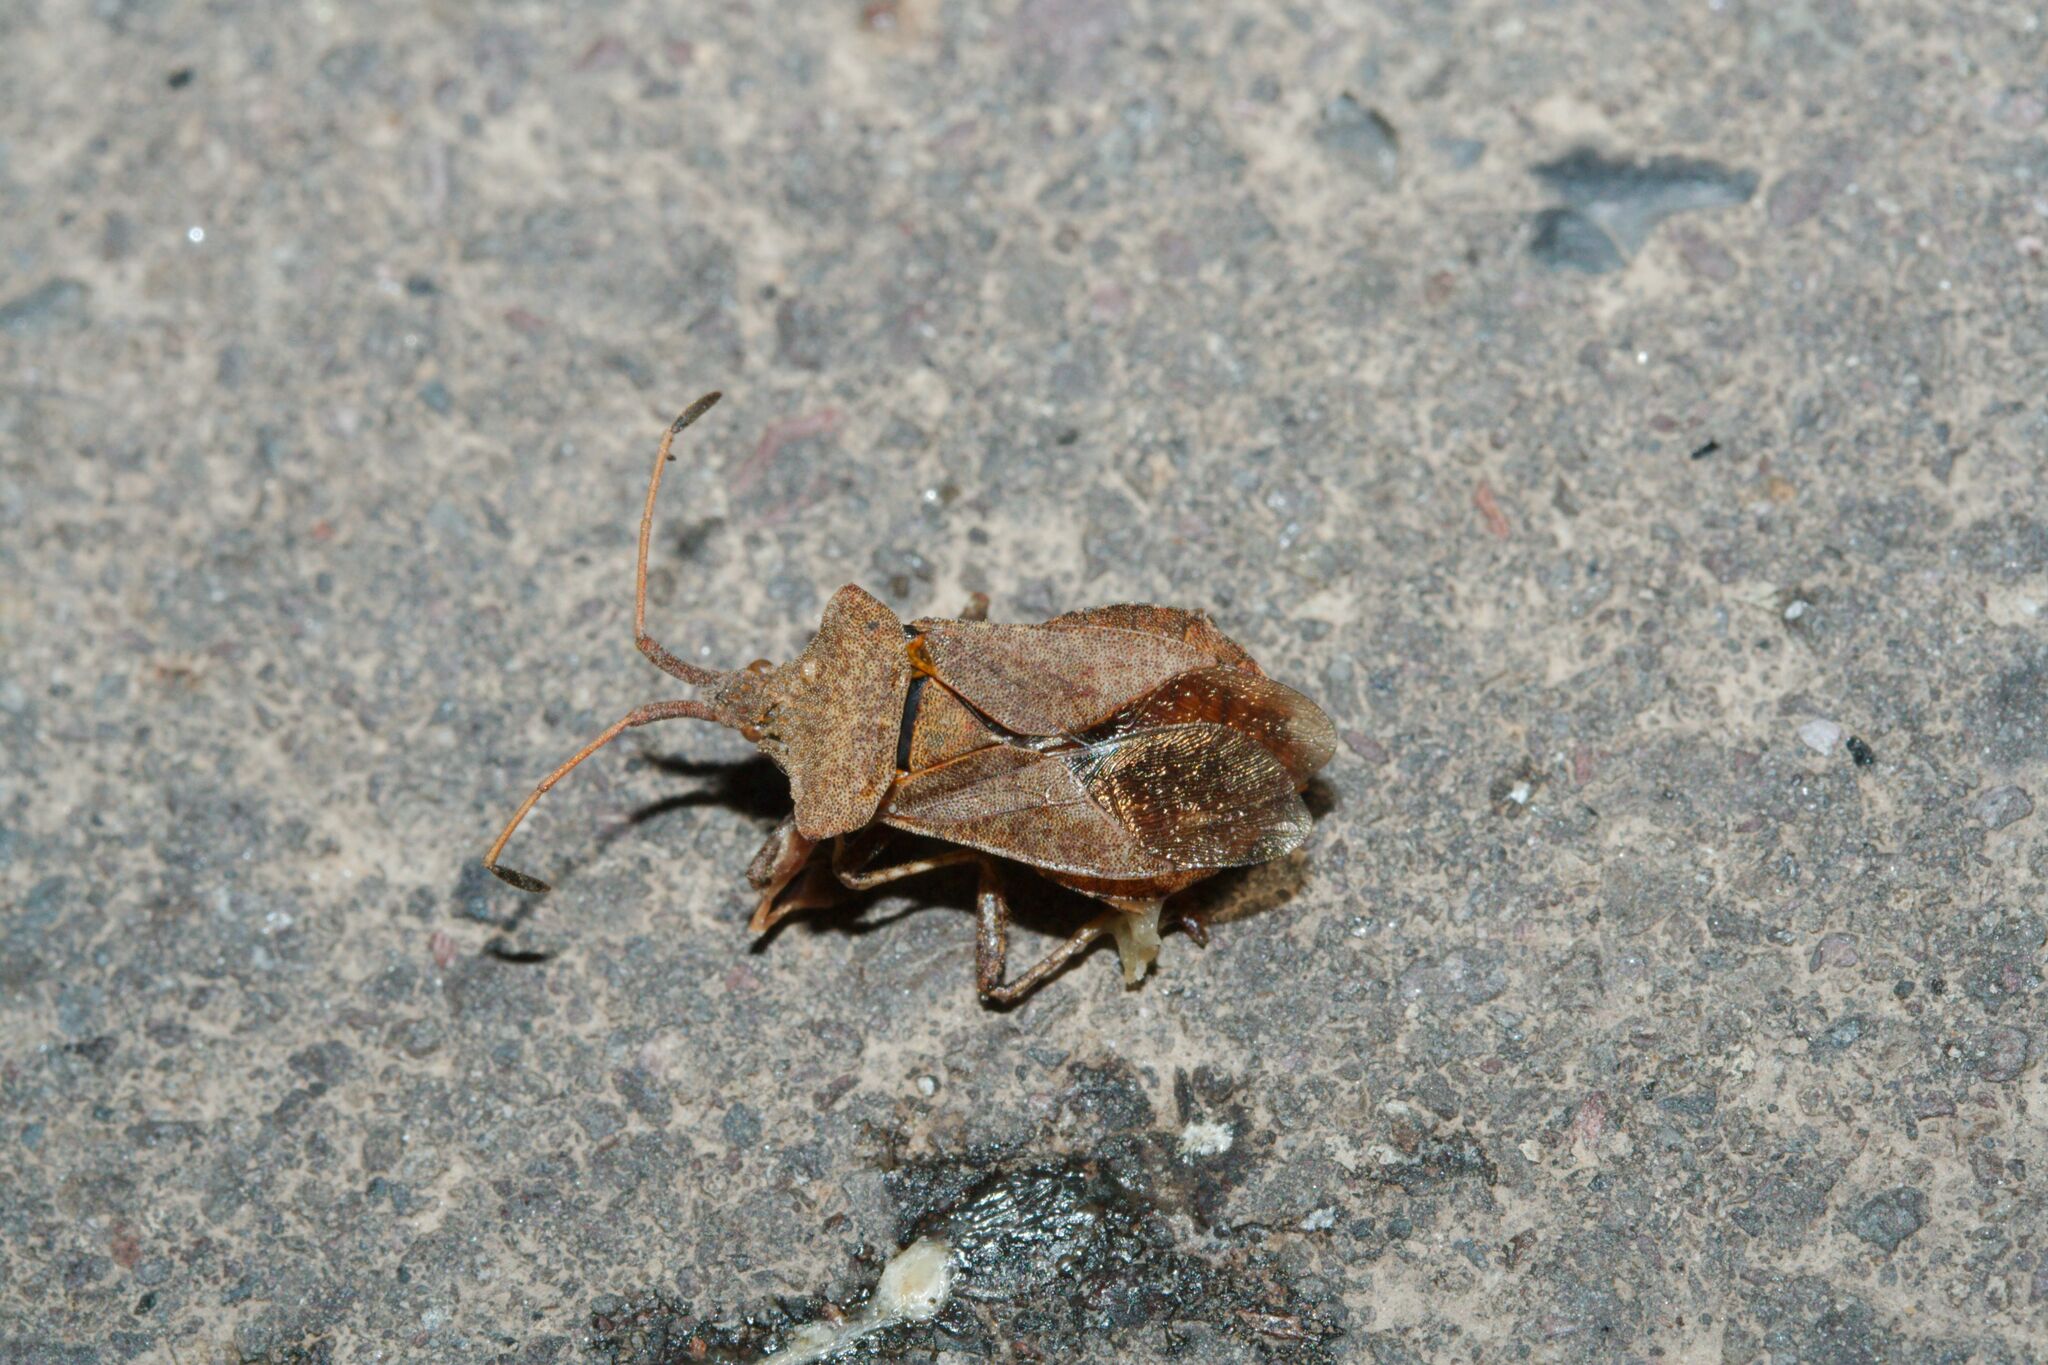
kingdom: Animalia
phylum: Arthropoda
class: Insecta
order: Hemiptera
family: Coreidae
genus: Coreus
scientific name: Coreus marginatus
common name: Dock bug
